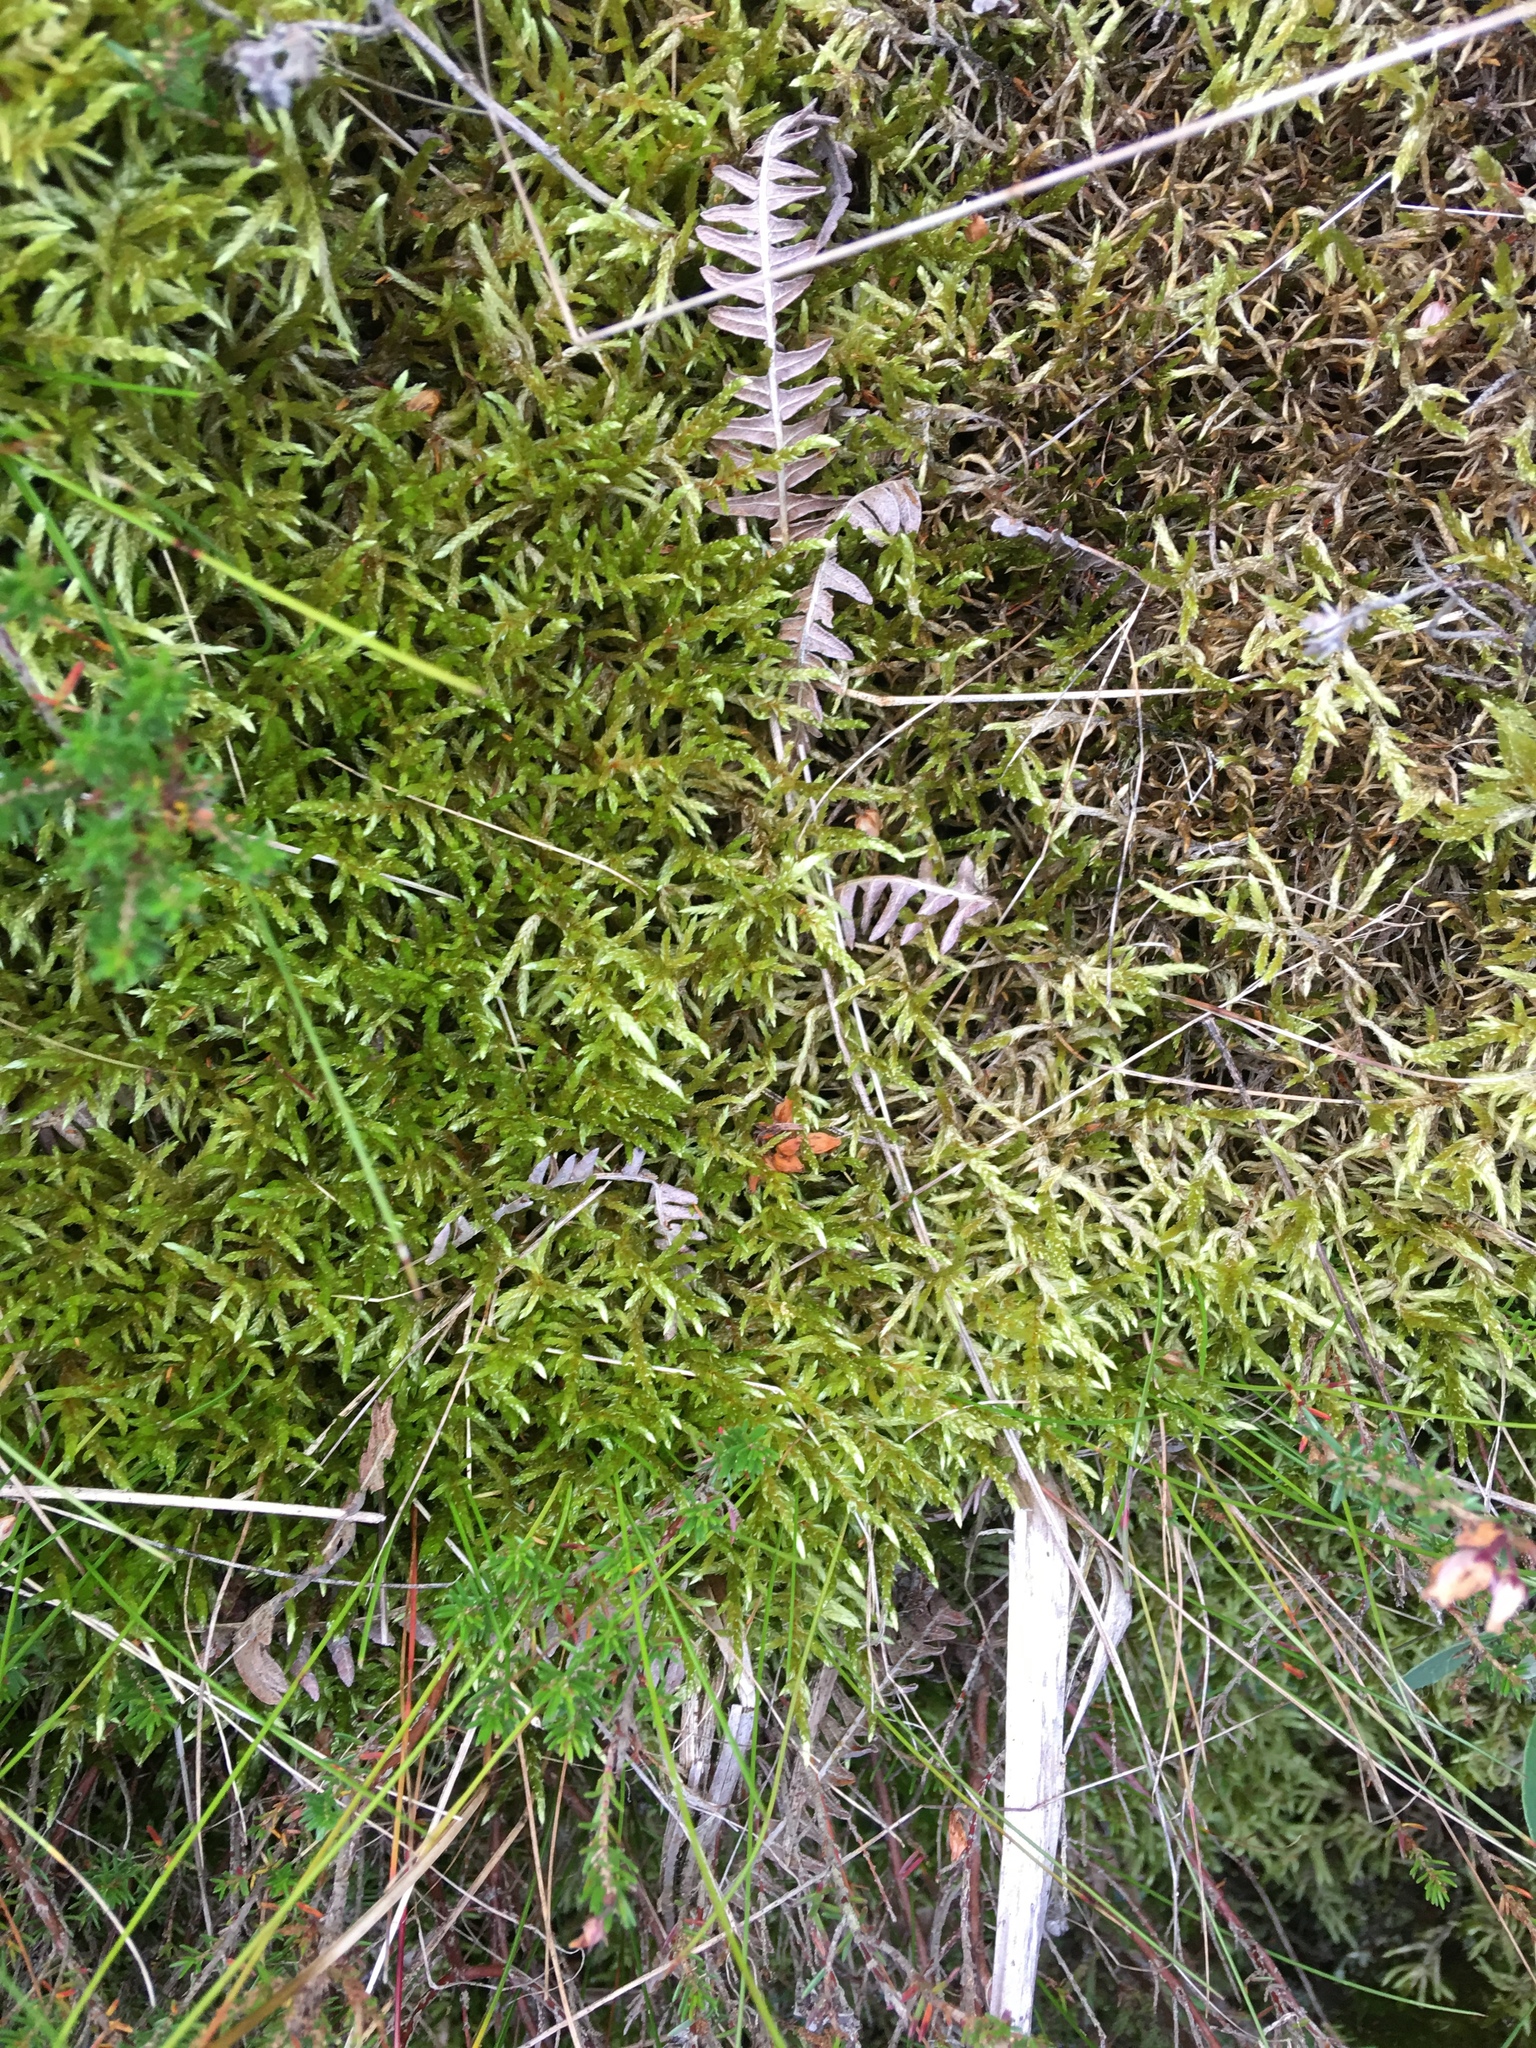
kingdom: Plantae
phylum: Bryophyta
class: Bryopsida
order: Hypnales
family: Brachytheciaceae
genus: Pseudoscleropodium
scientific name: Pseudoscleropodium purum
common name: Neat feather-moss
